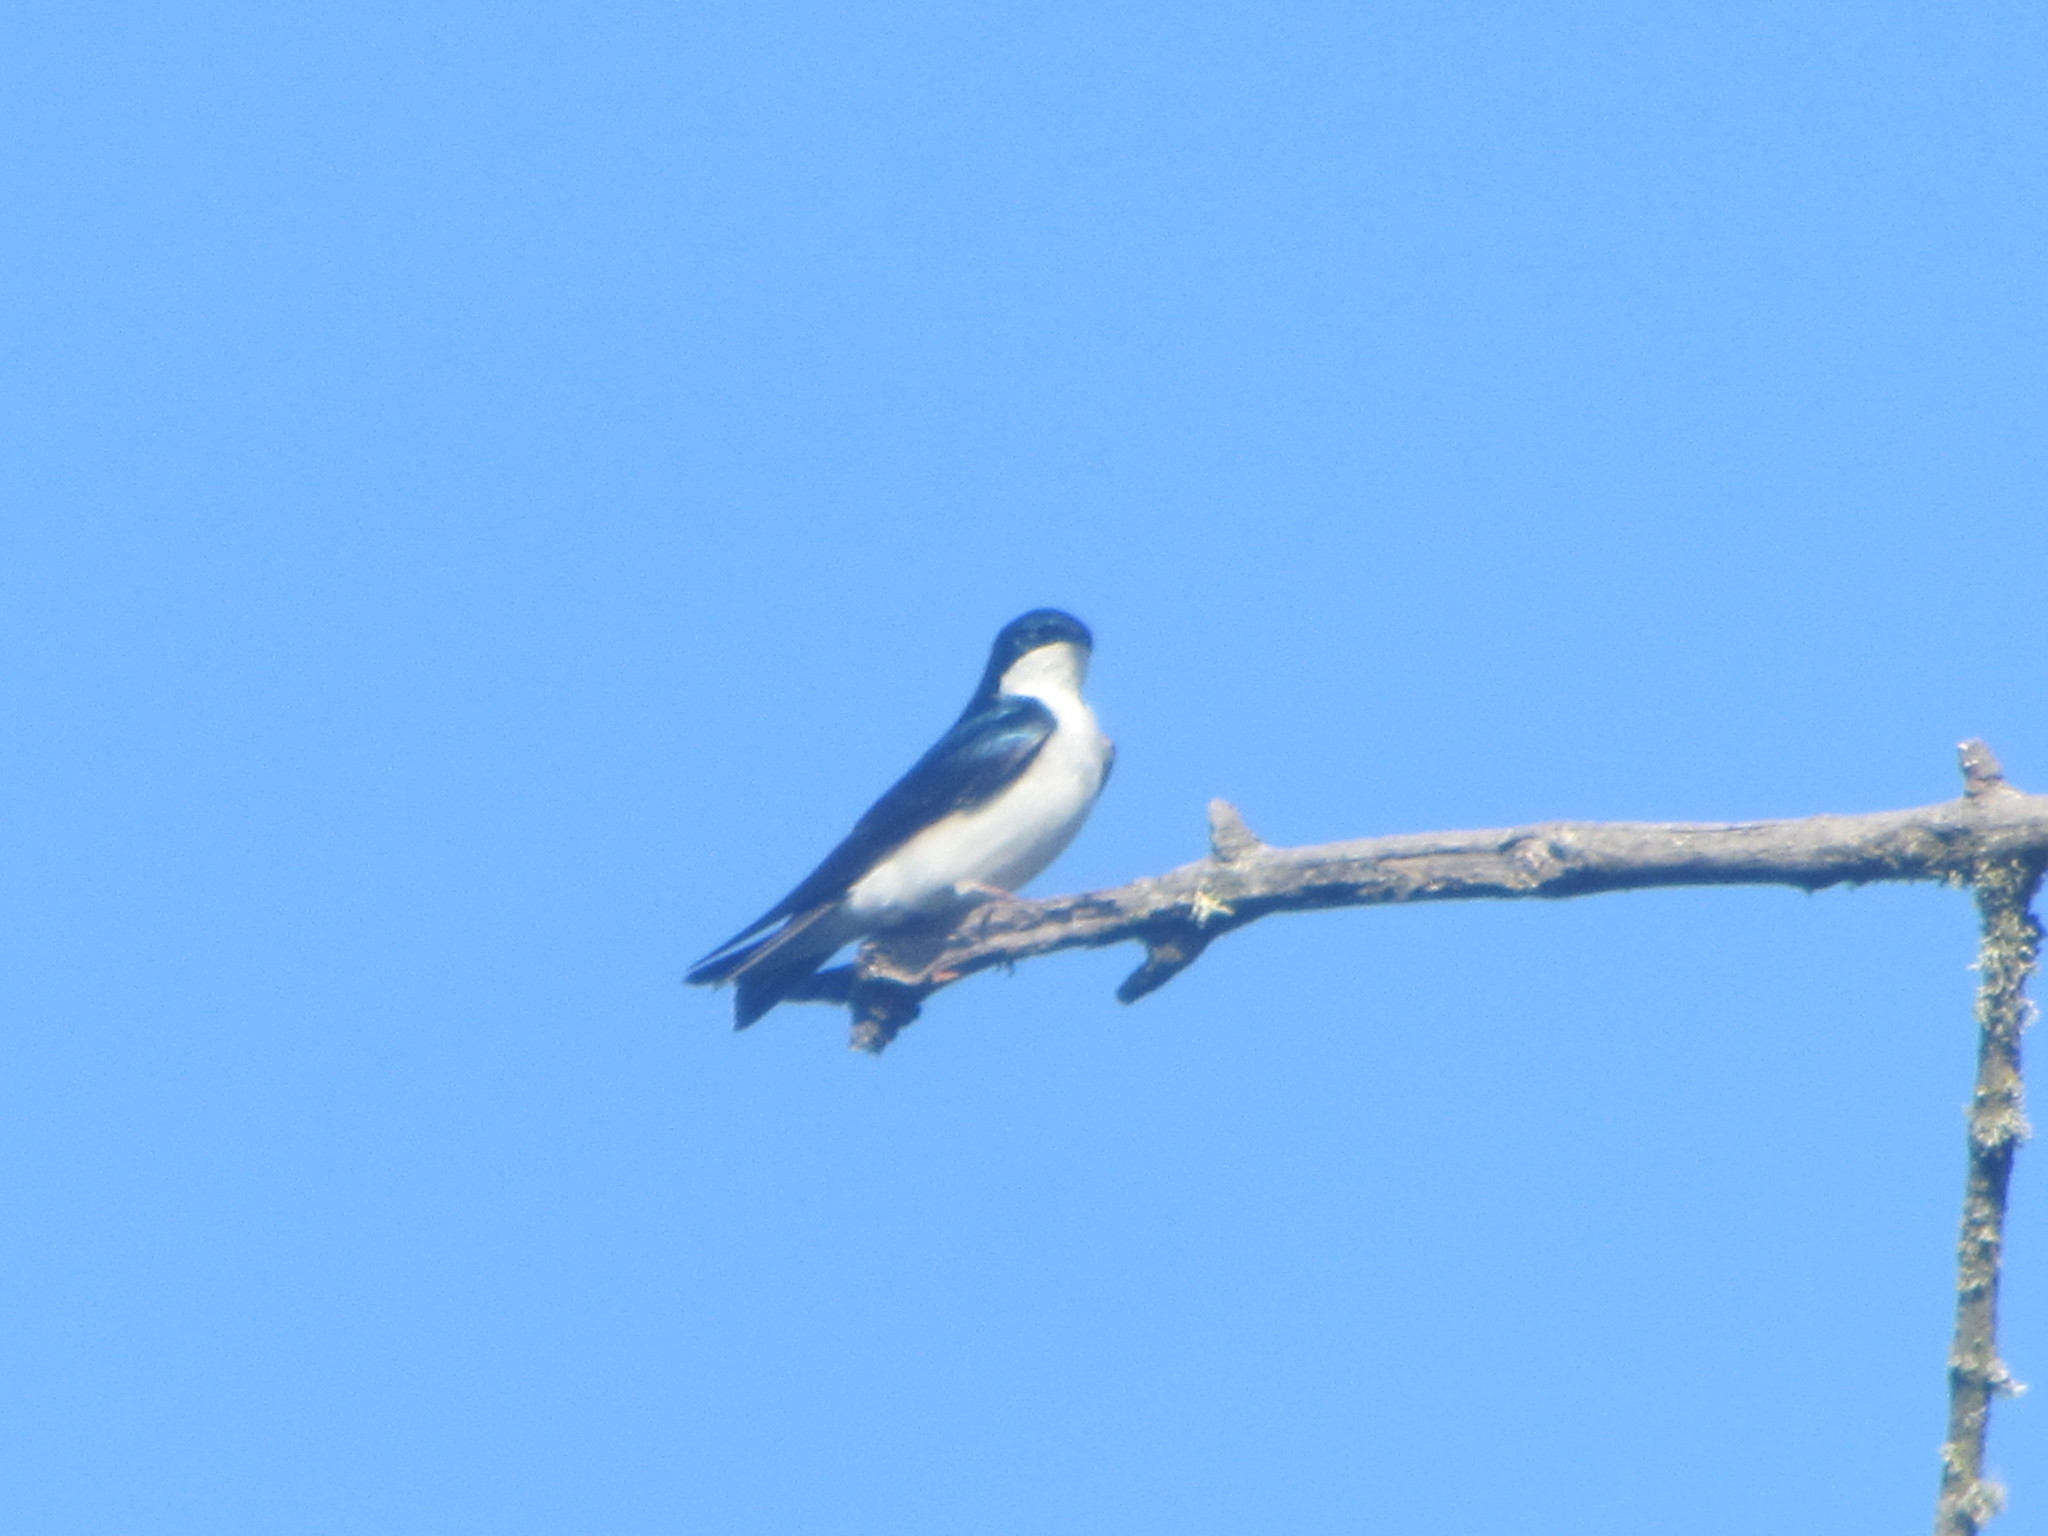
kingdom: Animalia
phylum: Chordata
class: Aves
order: Passeriformes
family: Hirundinidae
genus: Tachycineta
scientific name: Tachycineta bicolor
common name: Tree swallow
